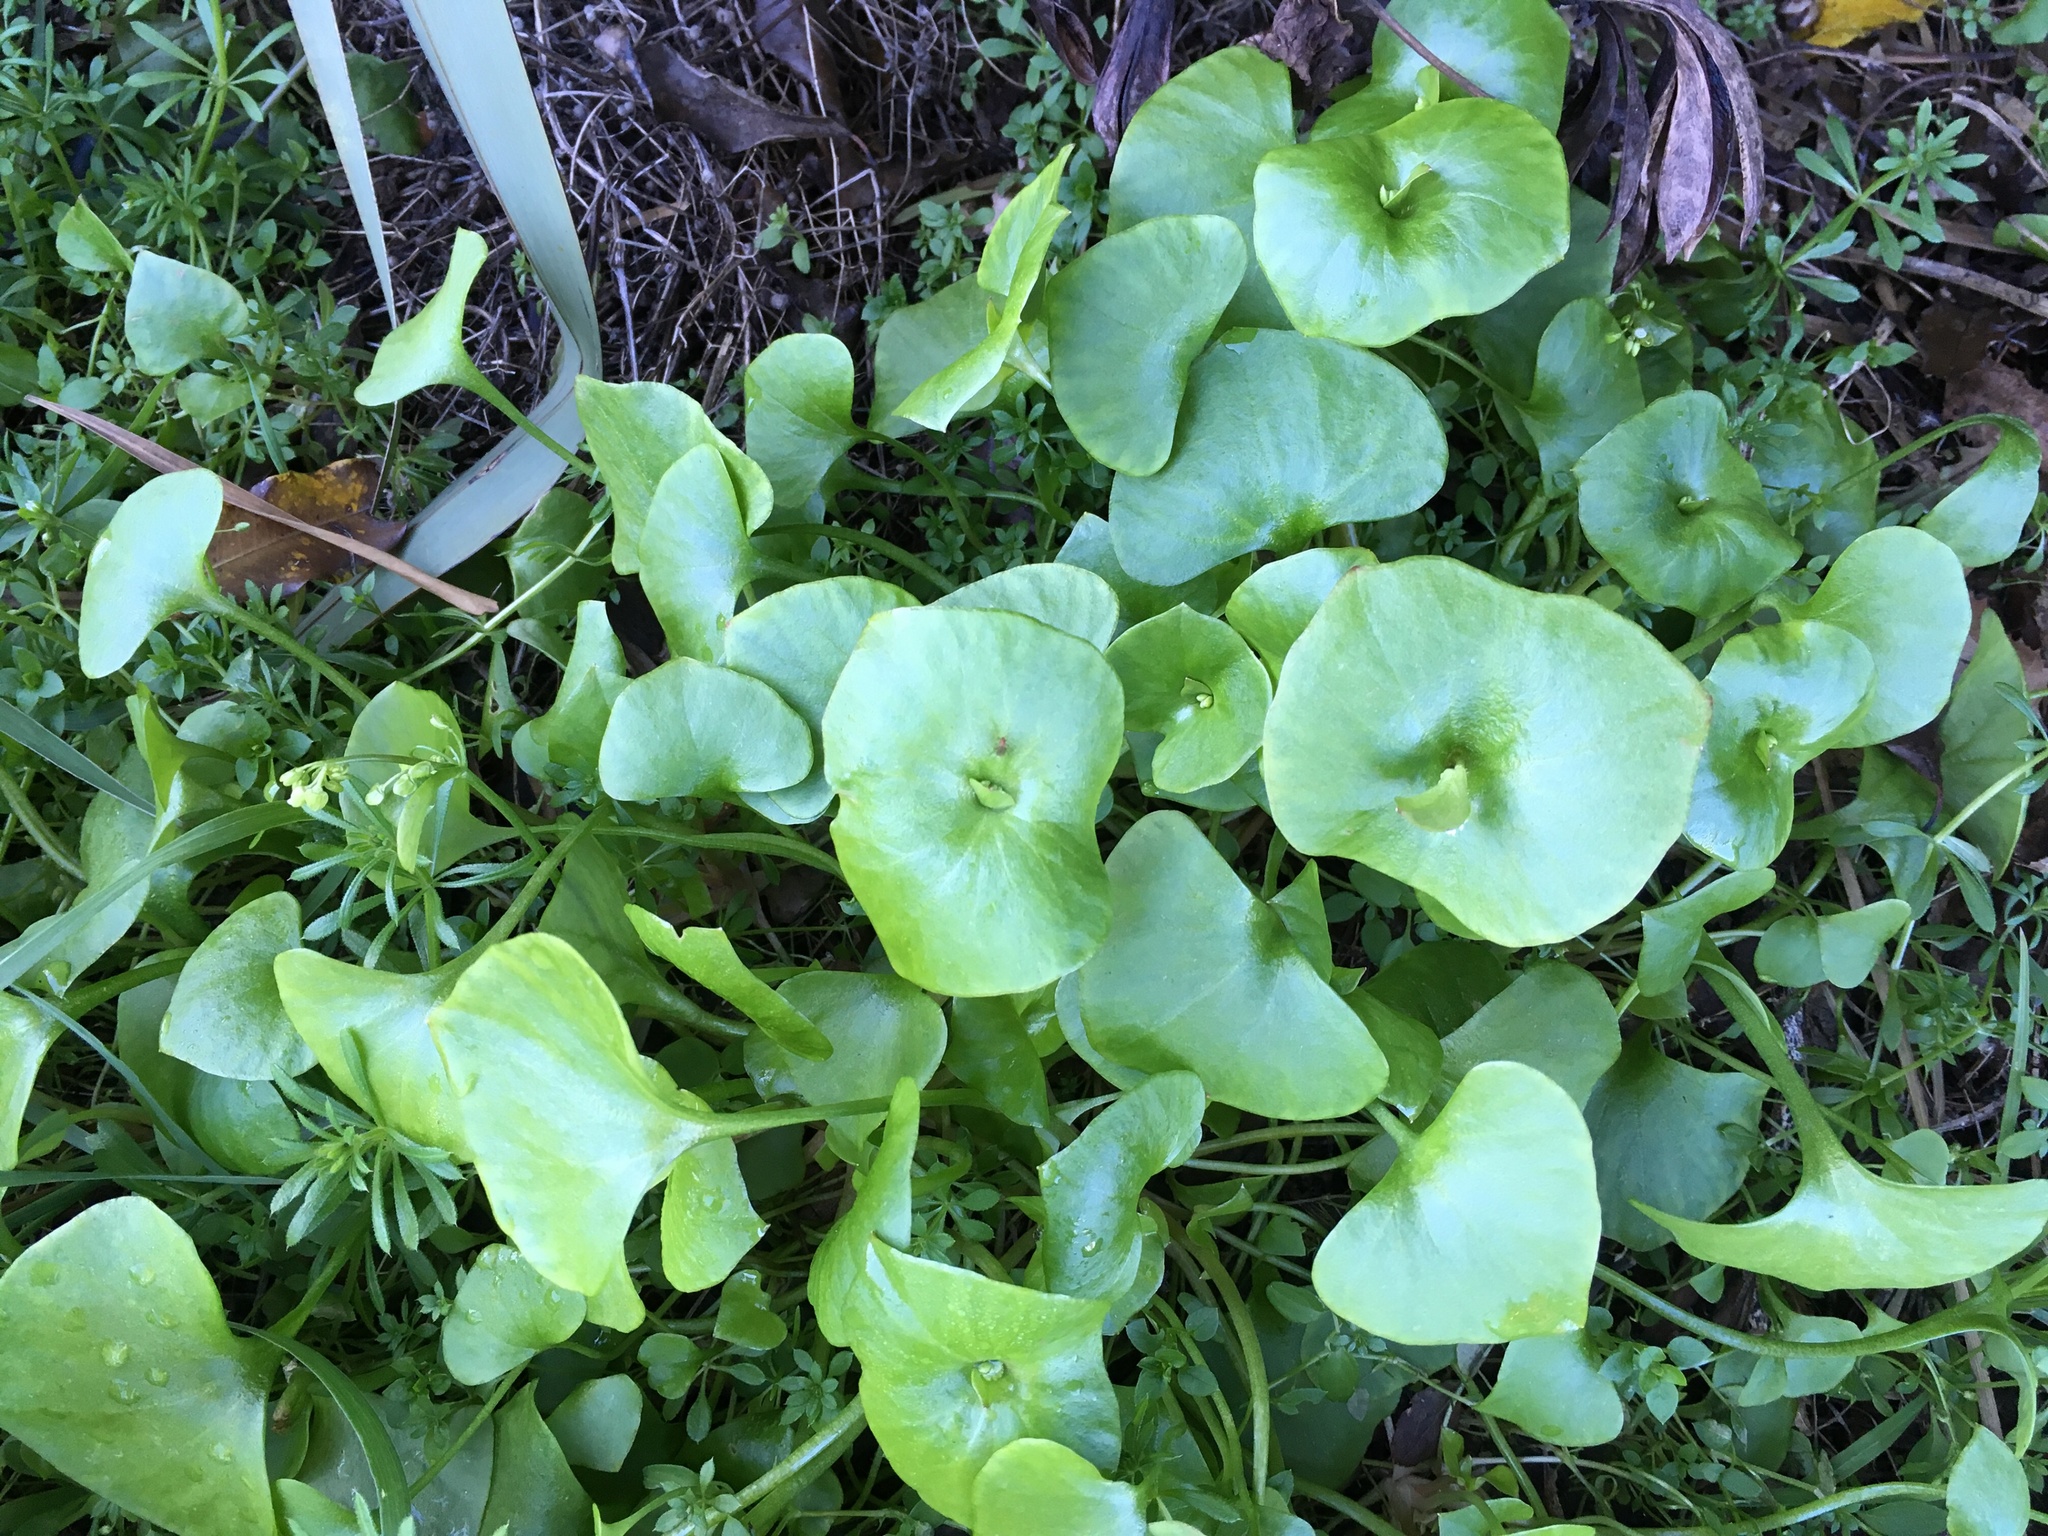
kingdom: Plantae
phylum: Tracheophyta
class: Magnoliopsida
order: Caryophyllales
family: Montiaceae
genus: Claytonia
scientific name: Claytonia perfoliata
